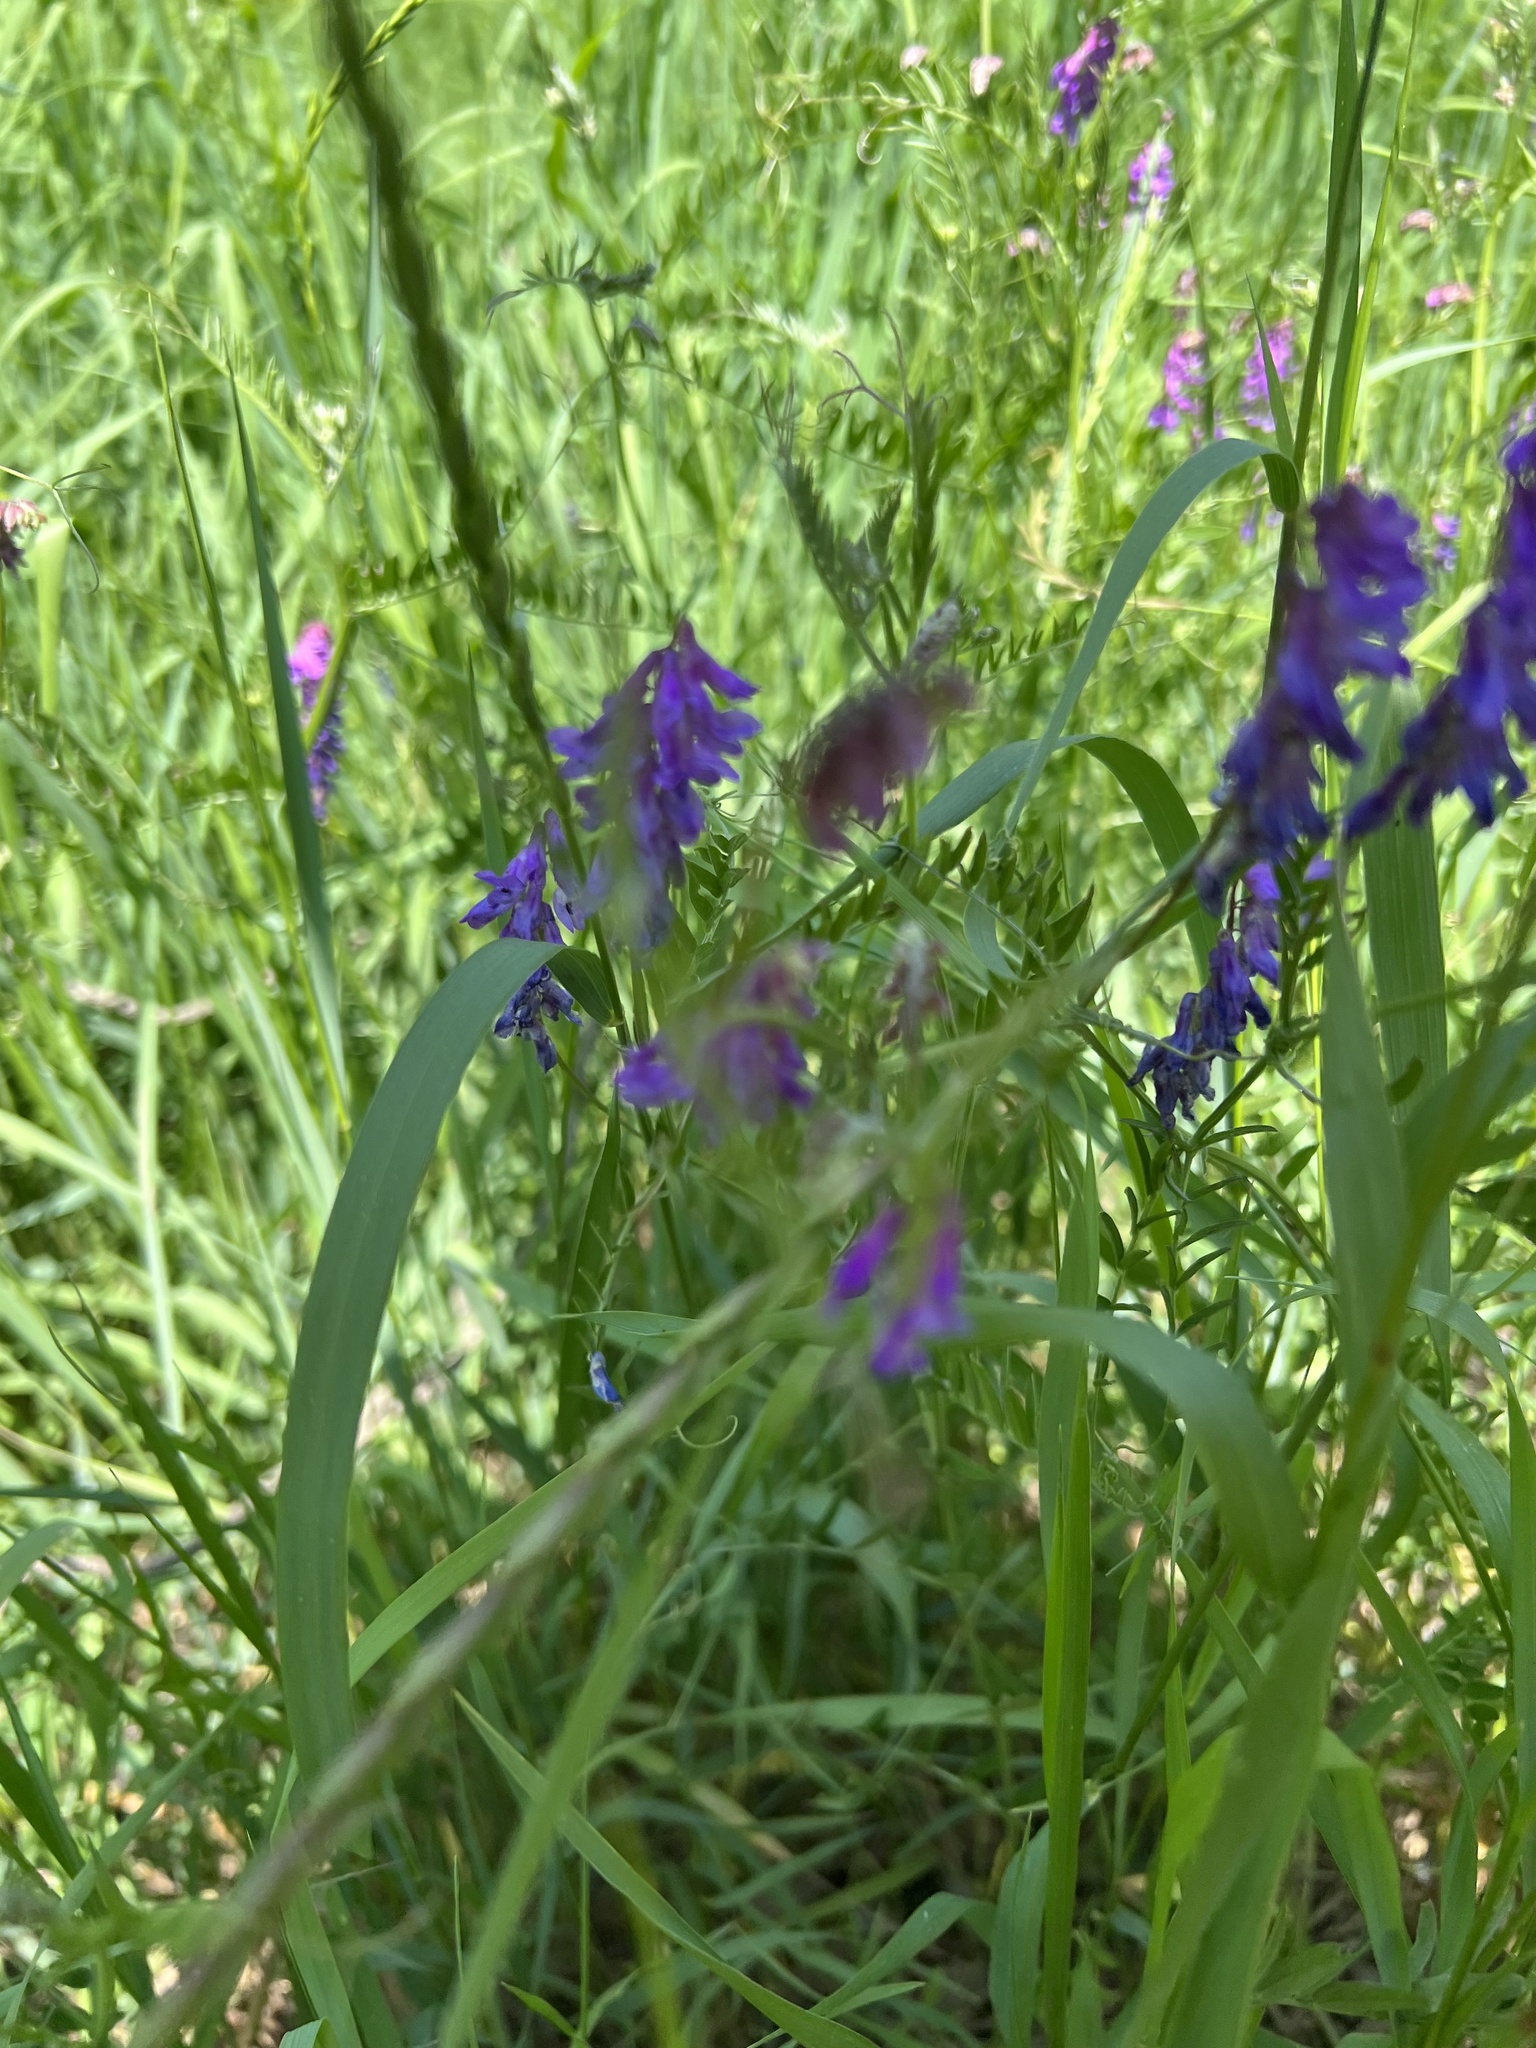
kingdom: Plantae
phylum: Tracheophyta
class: Magnoliopsida
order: Fabales
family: Fabaceae
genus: Vicia
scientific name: Vicia cracca
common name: Bird vetch
